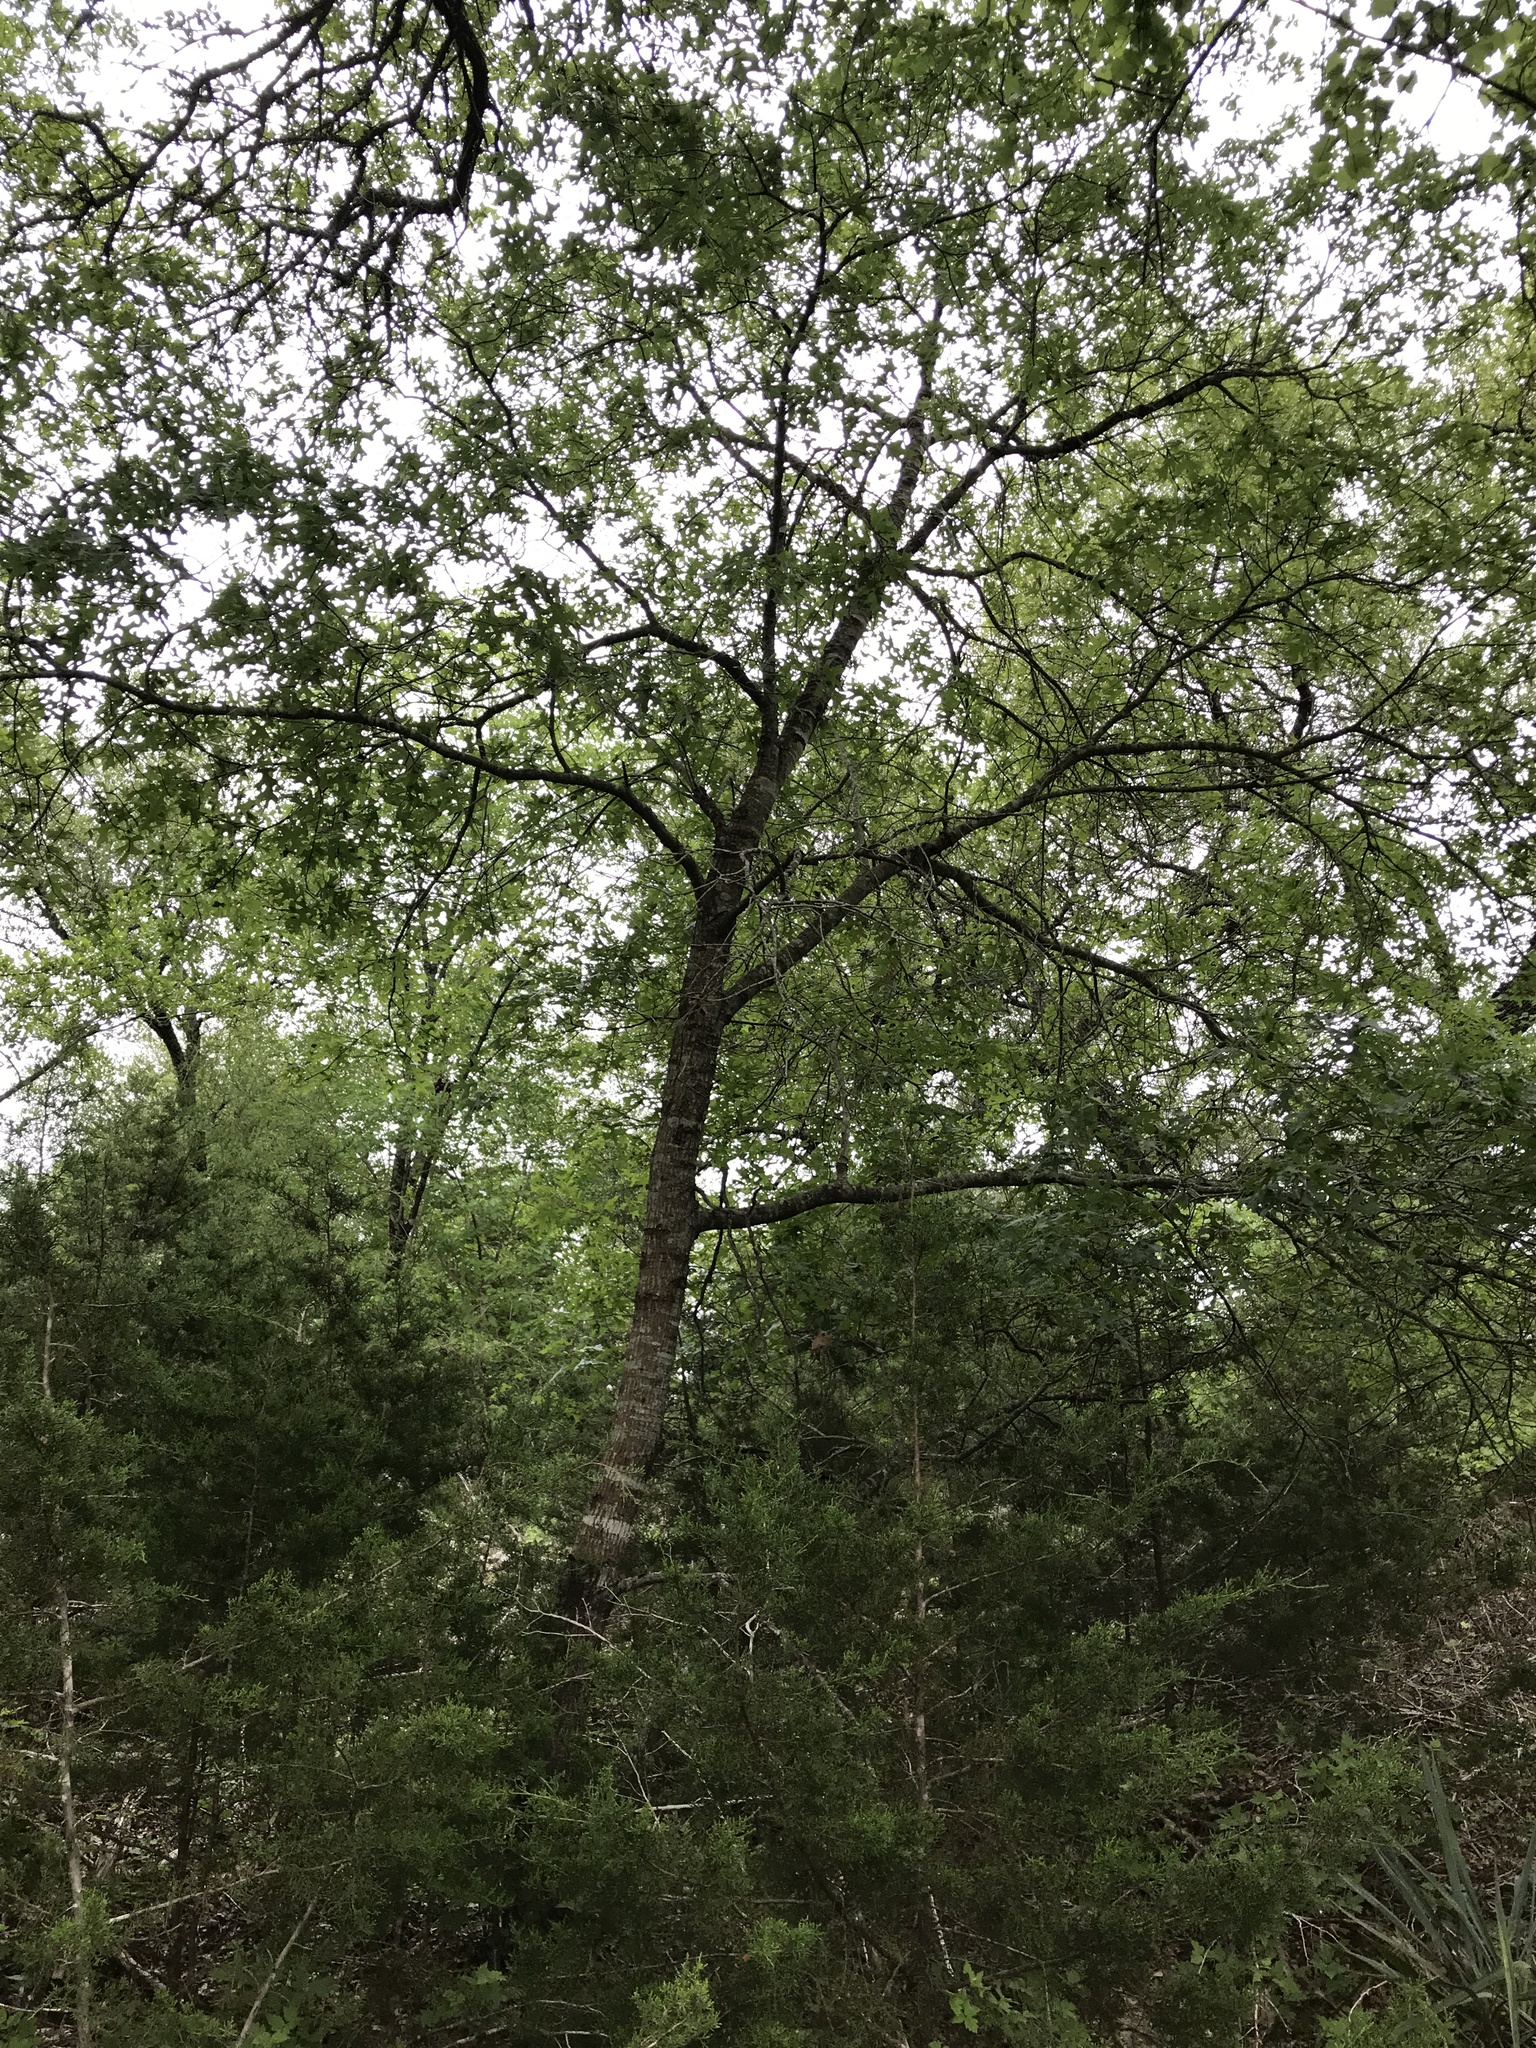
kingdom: Plantae
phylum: Tracheophyta
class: Magnoliopsida
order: Fagales
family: Fagaceae
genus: Quercus
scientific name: Quercus buckleyi
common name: Buckley oak
